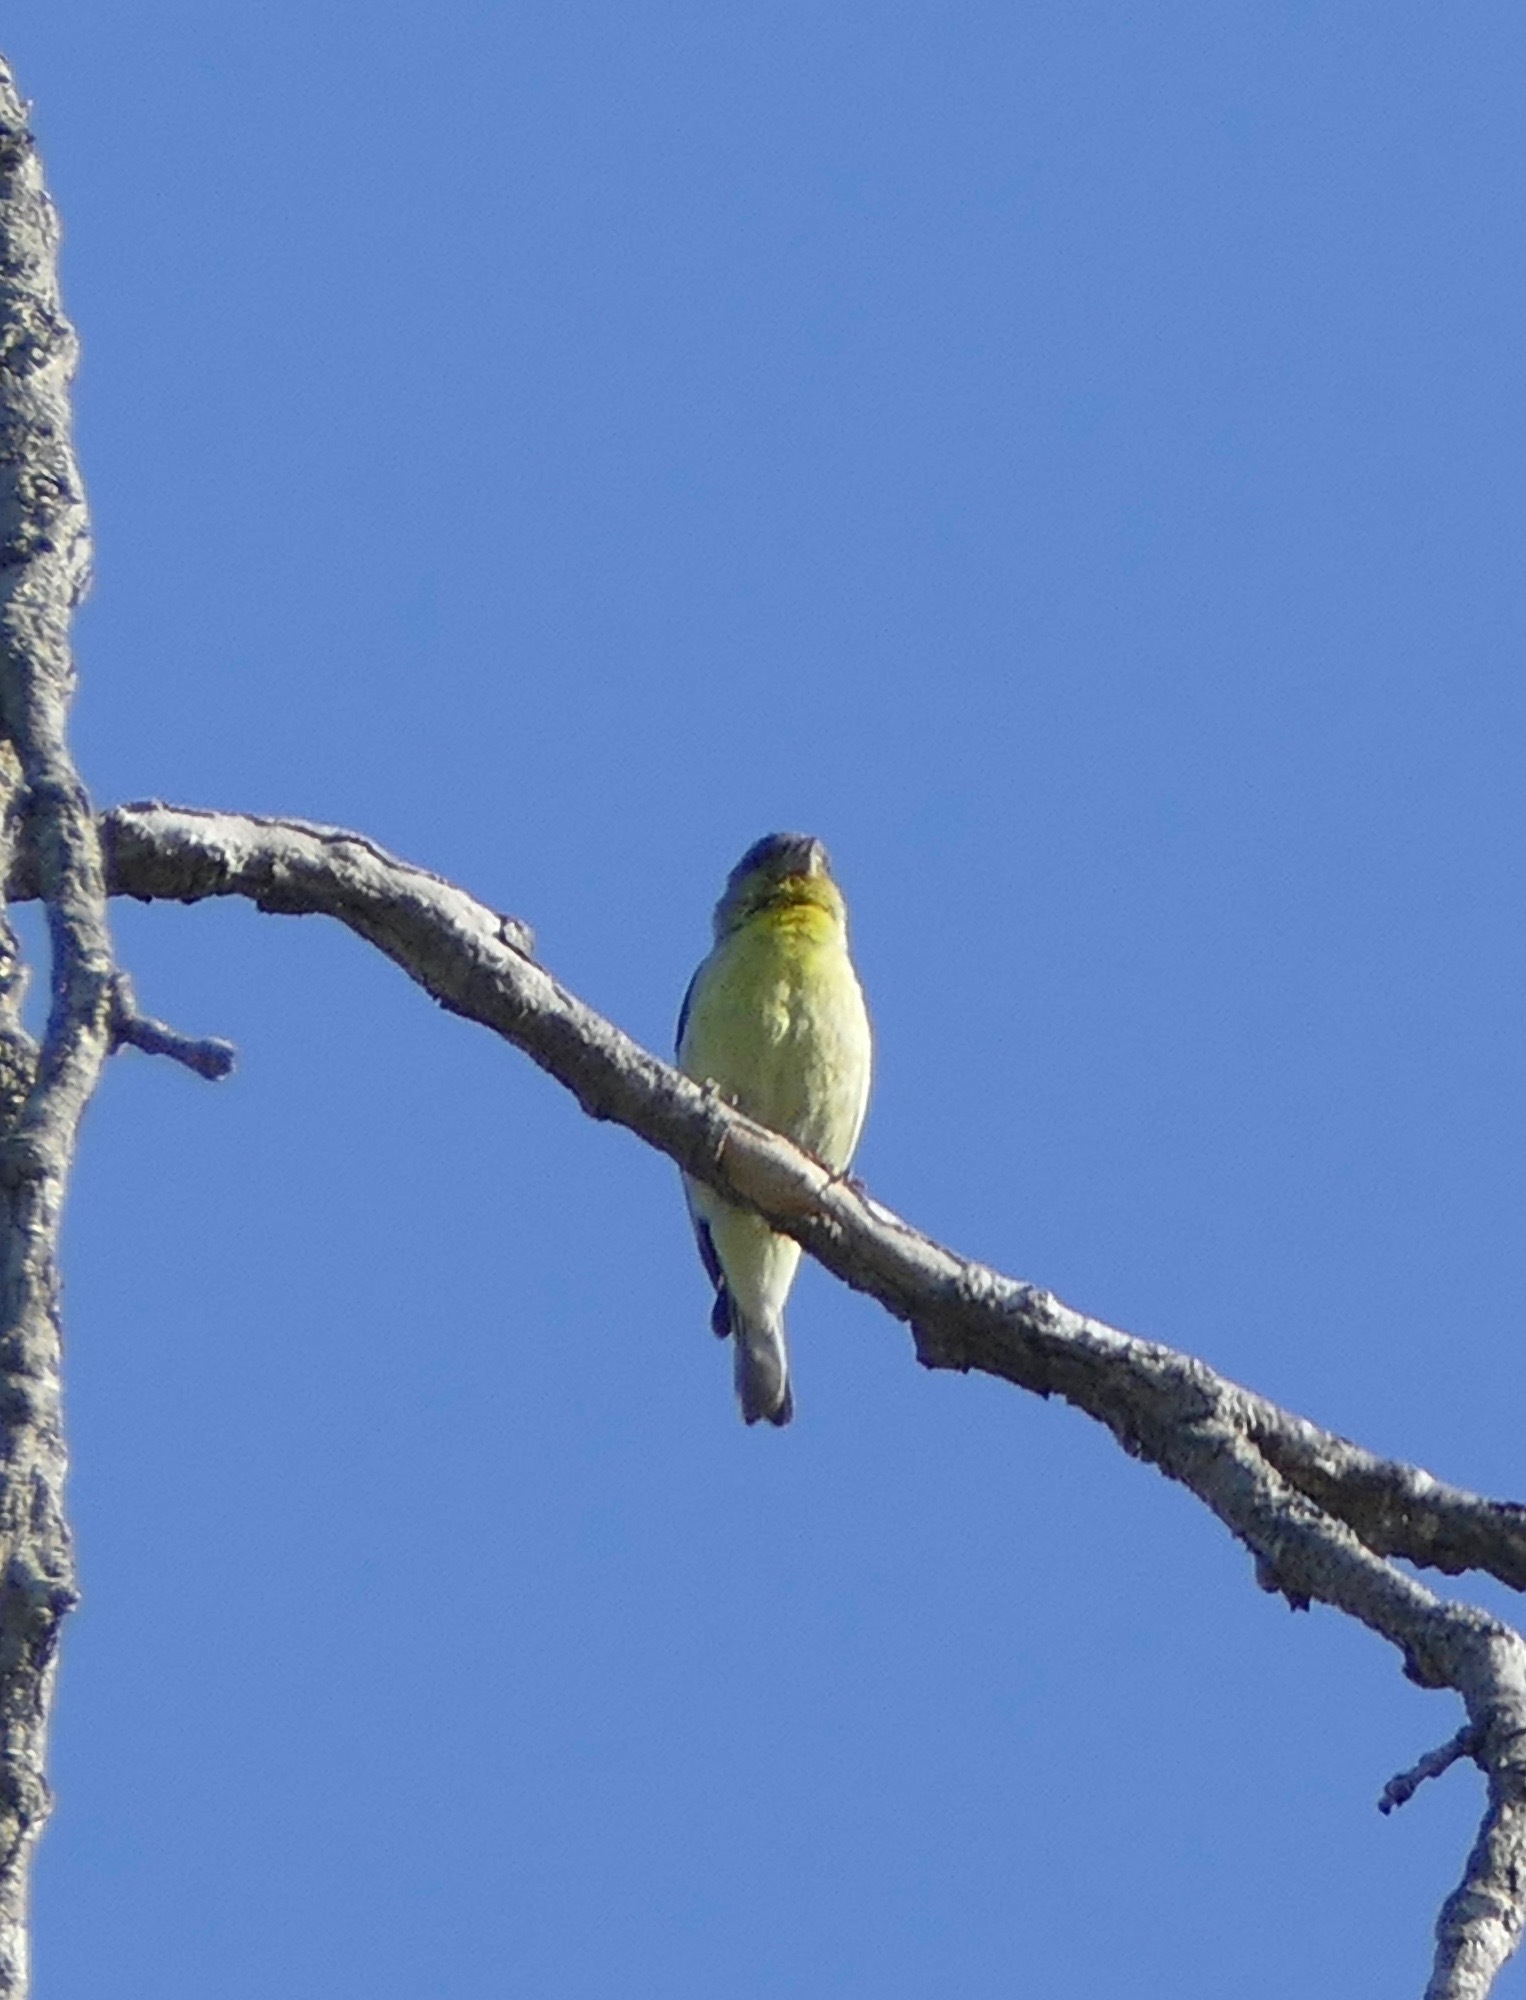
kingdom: Animalia
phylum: Chordata
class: Aves
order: Passeriformes
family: Fringillidae
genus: Spinus
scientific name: Spinus psaltria
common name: Lesser goldfinch
